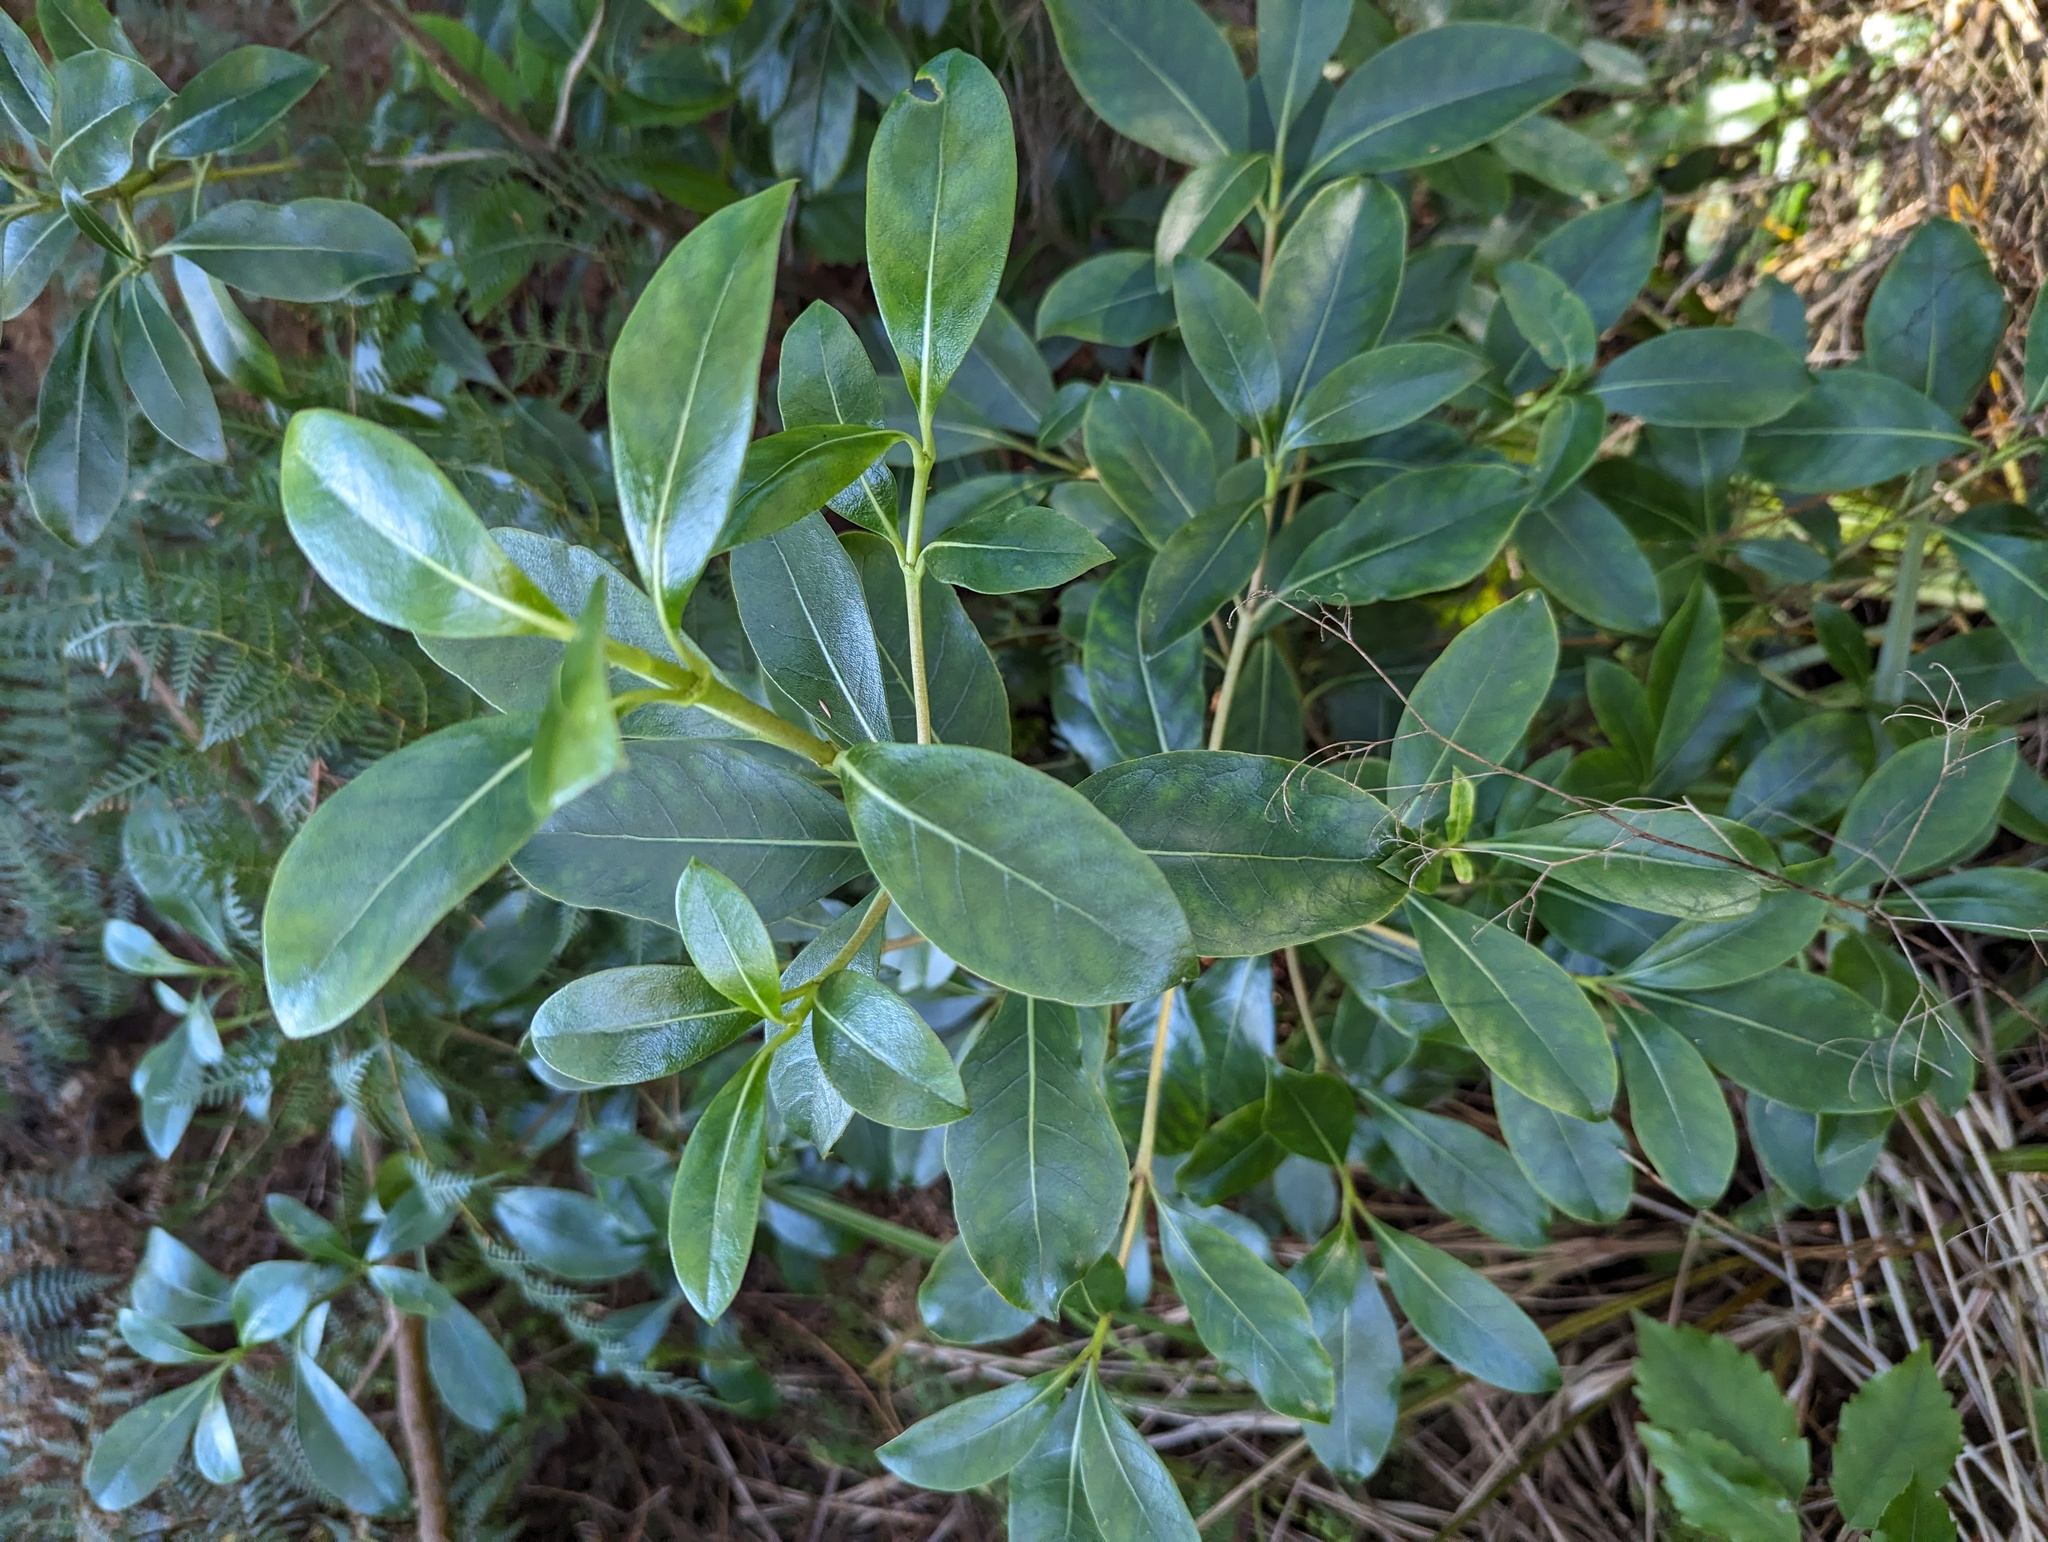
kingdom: Plantae
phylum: Tracheophyta
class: Magnoliopsida
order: Gentianales
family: Rubiaceae
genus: Coprosma
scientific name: Coprosma lucida
